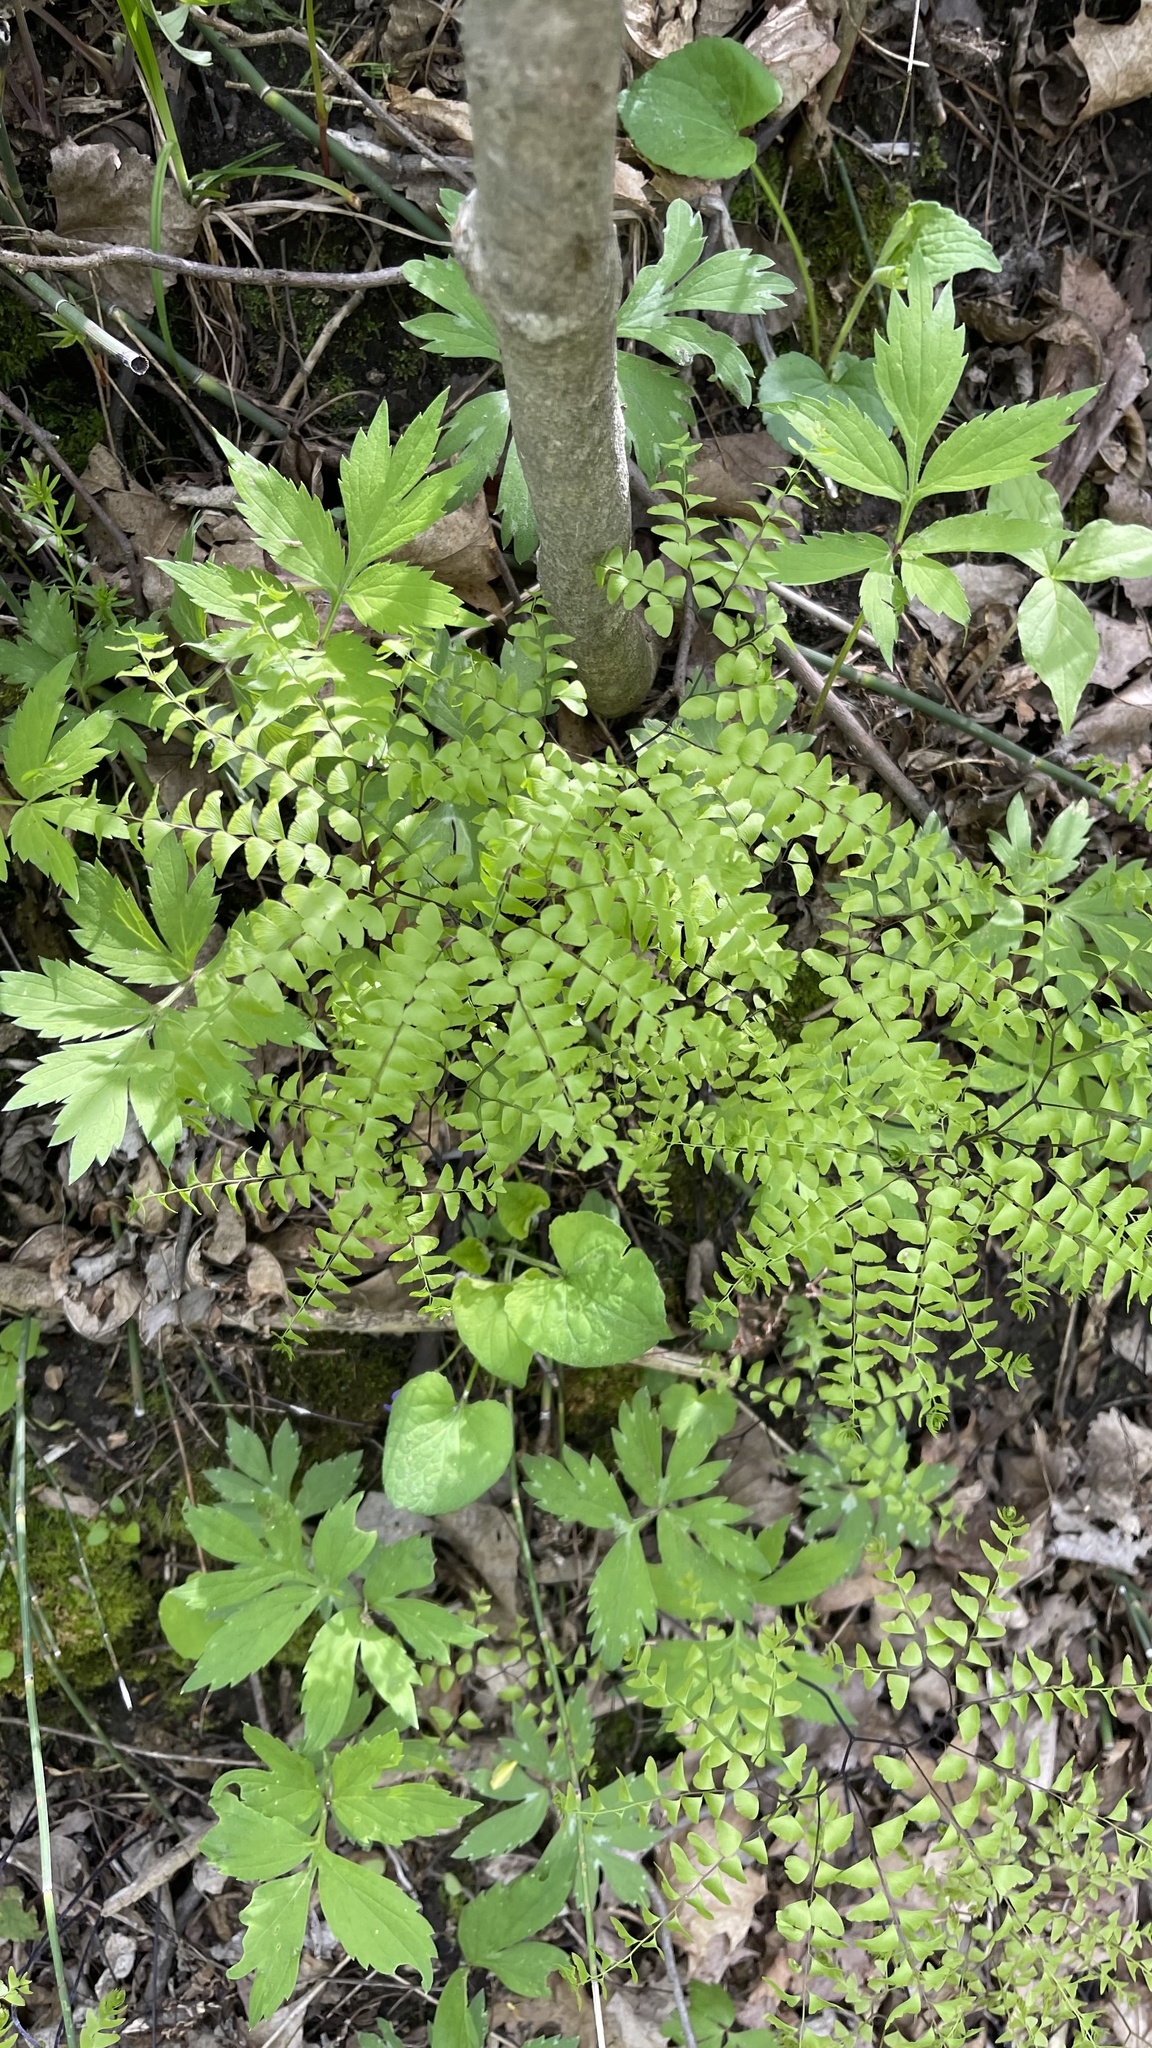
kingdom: Plantae
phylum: Tracheophyta
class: Polypodiopsida
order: Polypodiales
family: Pteridaceae
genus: Adiantum
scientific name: Adiantum pedatum
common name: Five-finger fern
